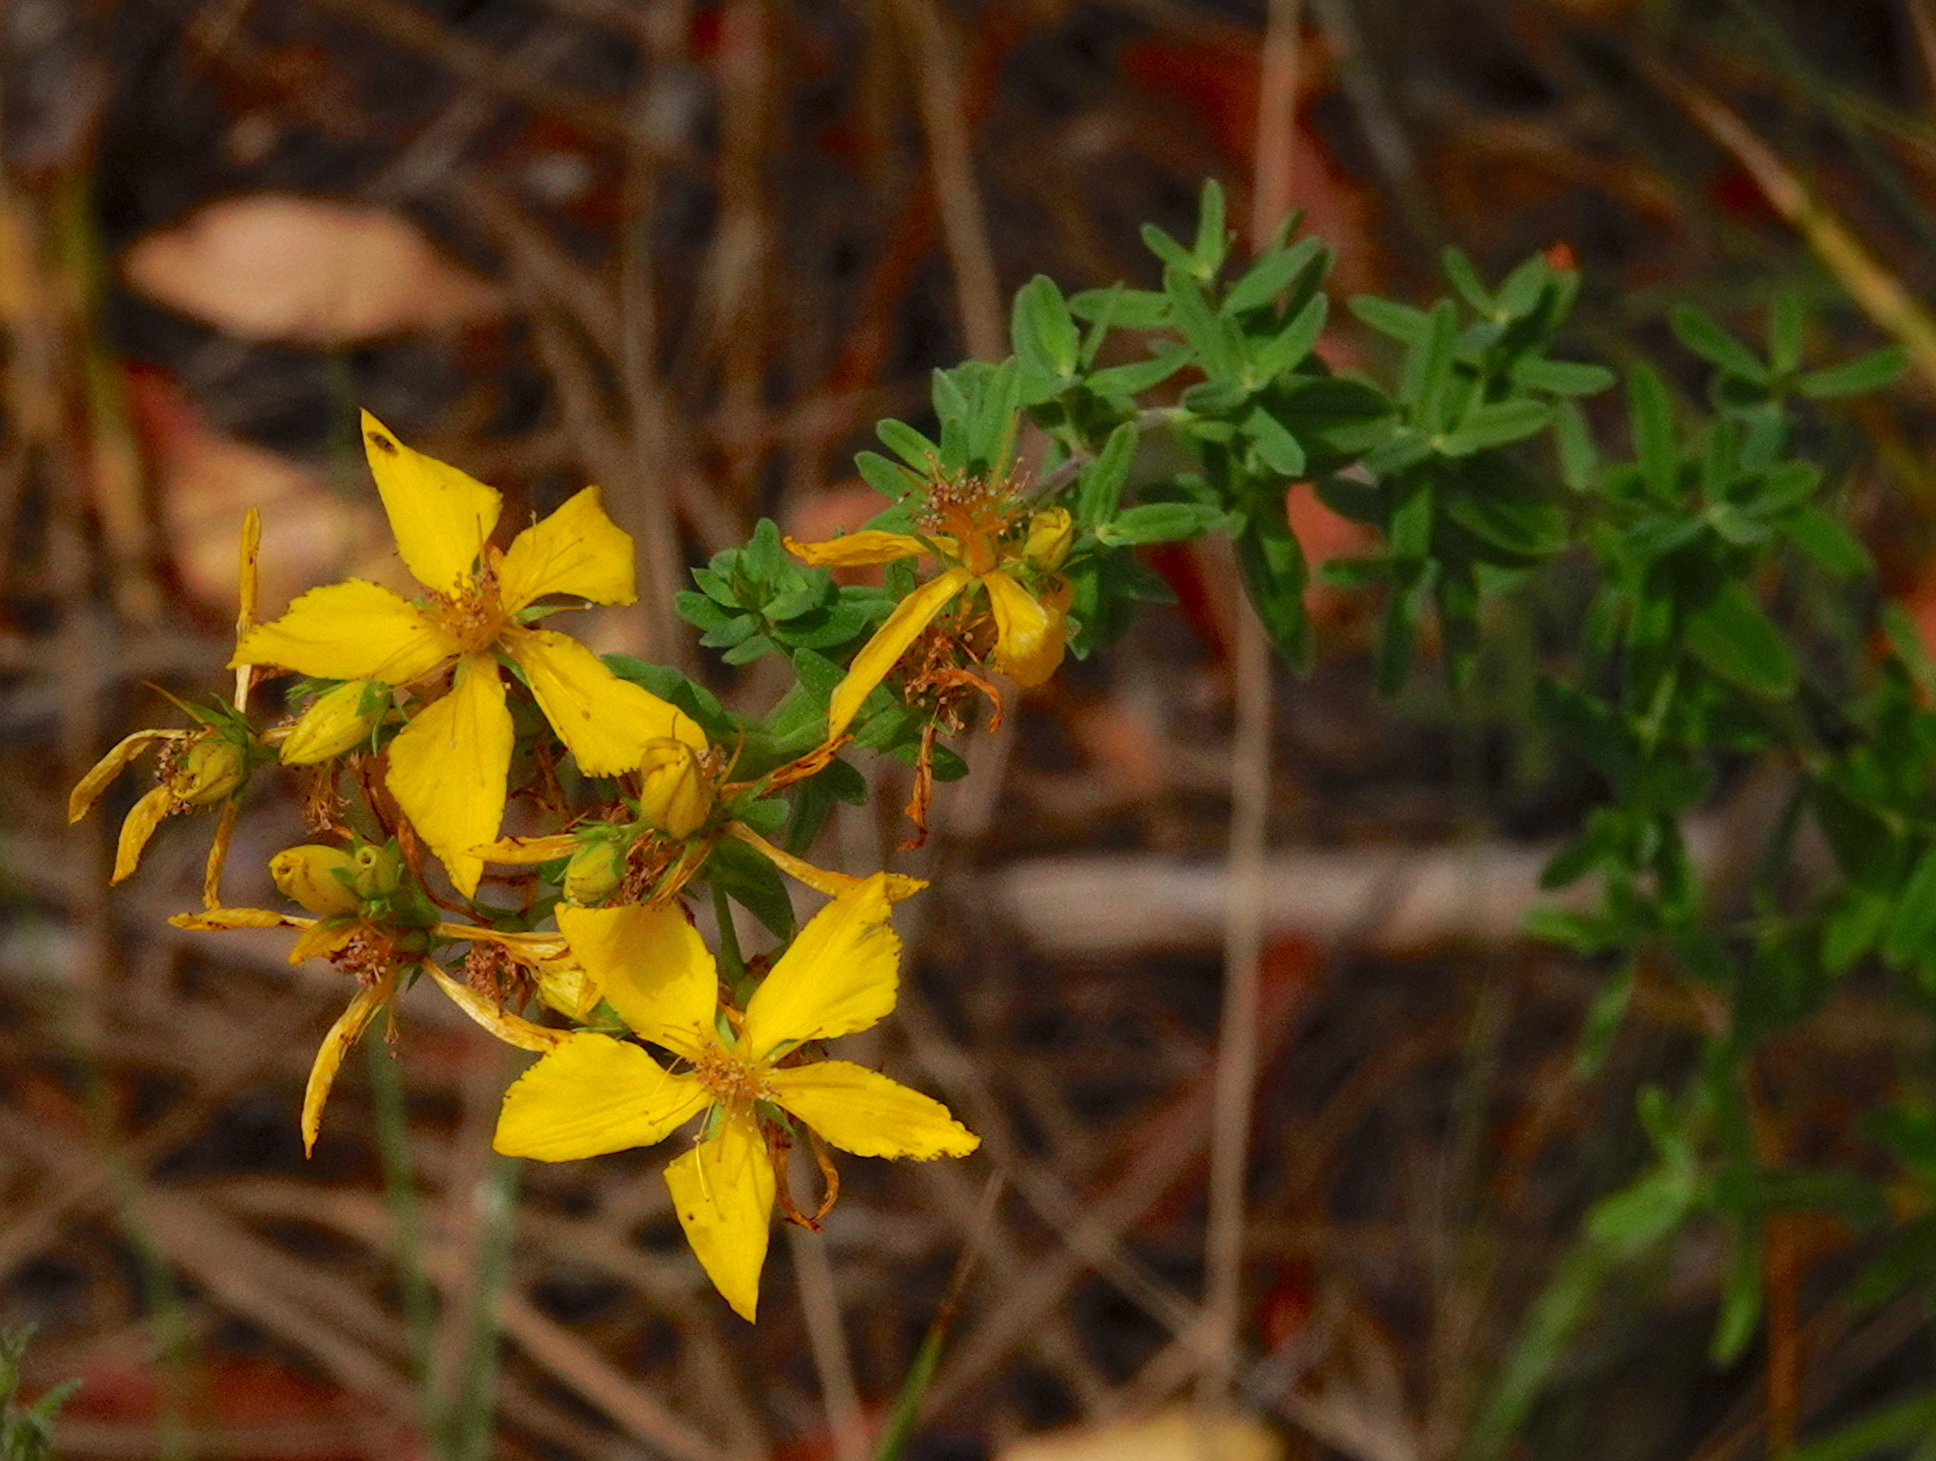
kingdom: Plantae
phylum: Tracheophyta
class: Magnoliopsida
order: Malpighiales
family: Hypericaceae
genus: Hypericum
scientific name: Hypericum perforatum
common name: Common st. johnswort
